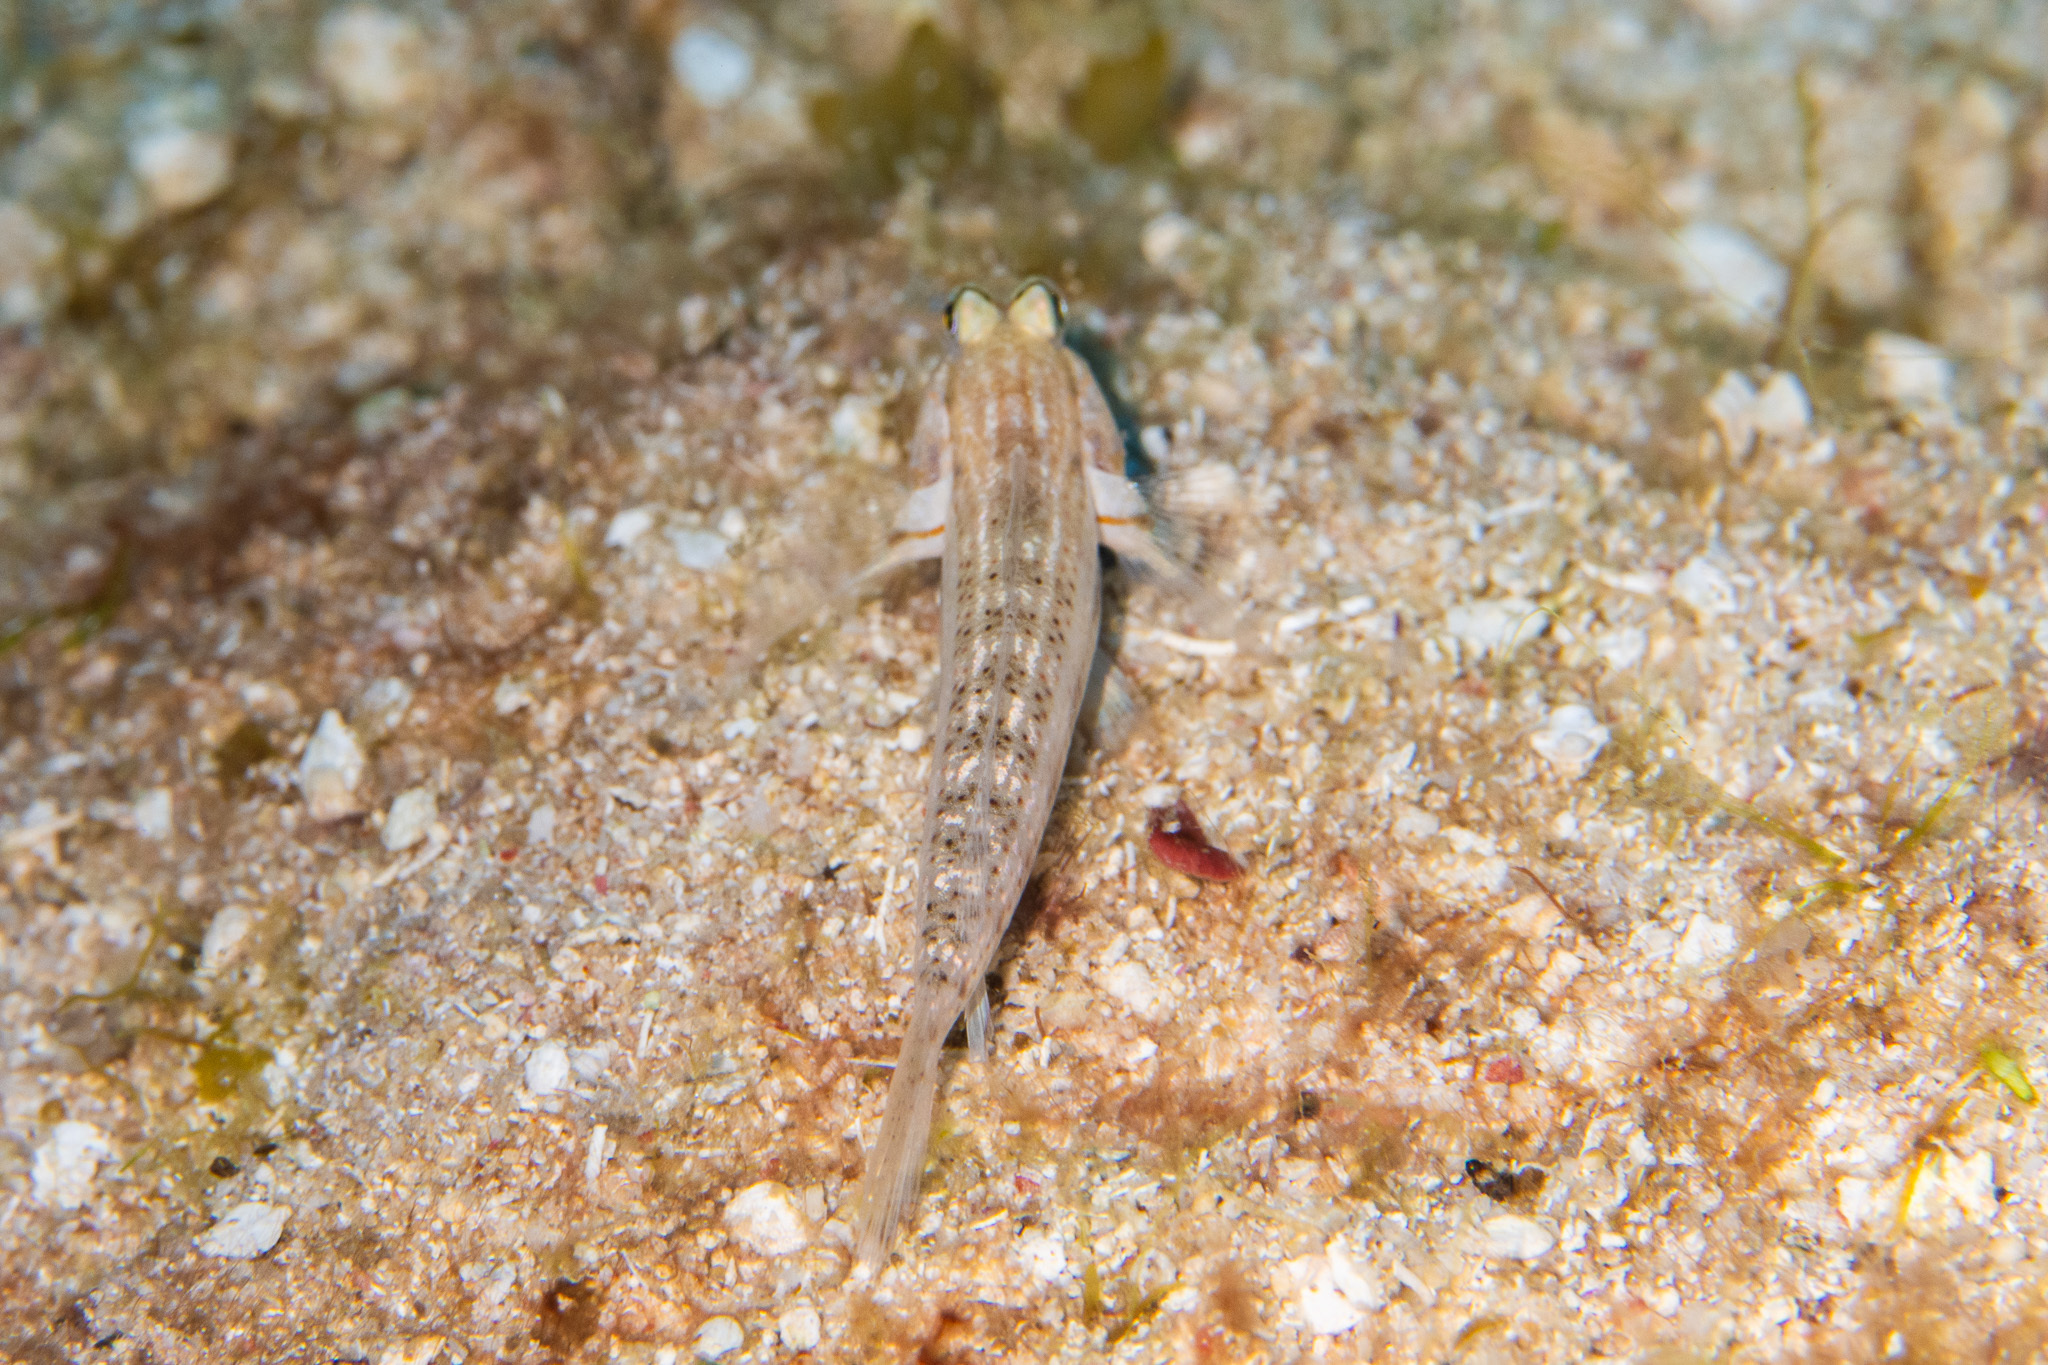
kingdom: Animalia
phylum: Chordata
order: Perciformes
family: Gobiidae
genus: Gnatholepis
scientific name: Gnatholepis thompsoni
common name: Goldspot goby
